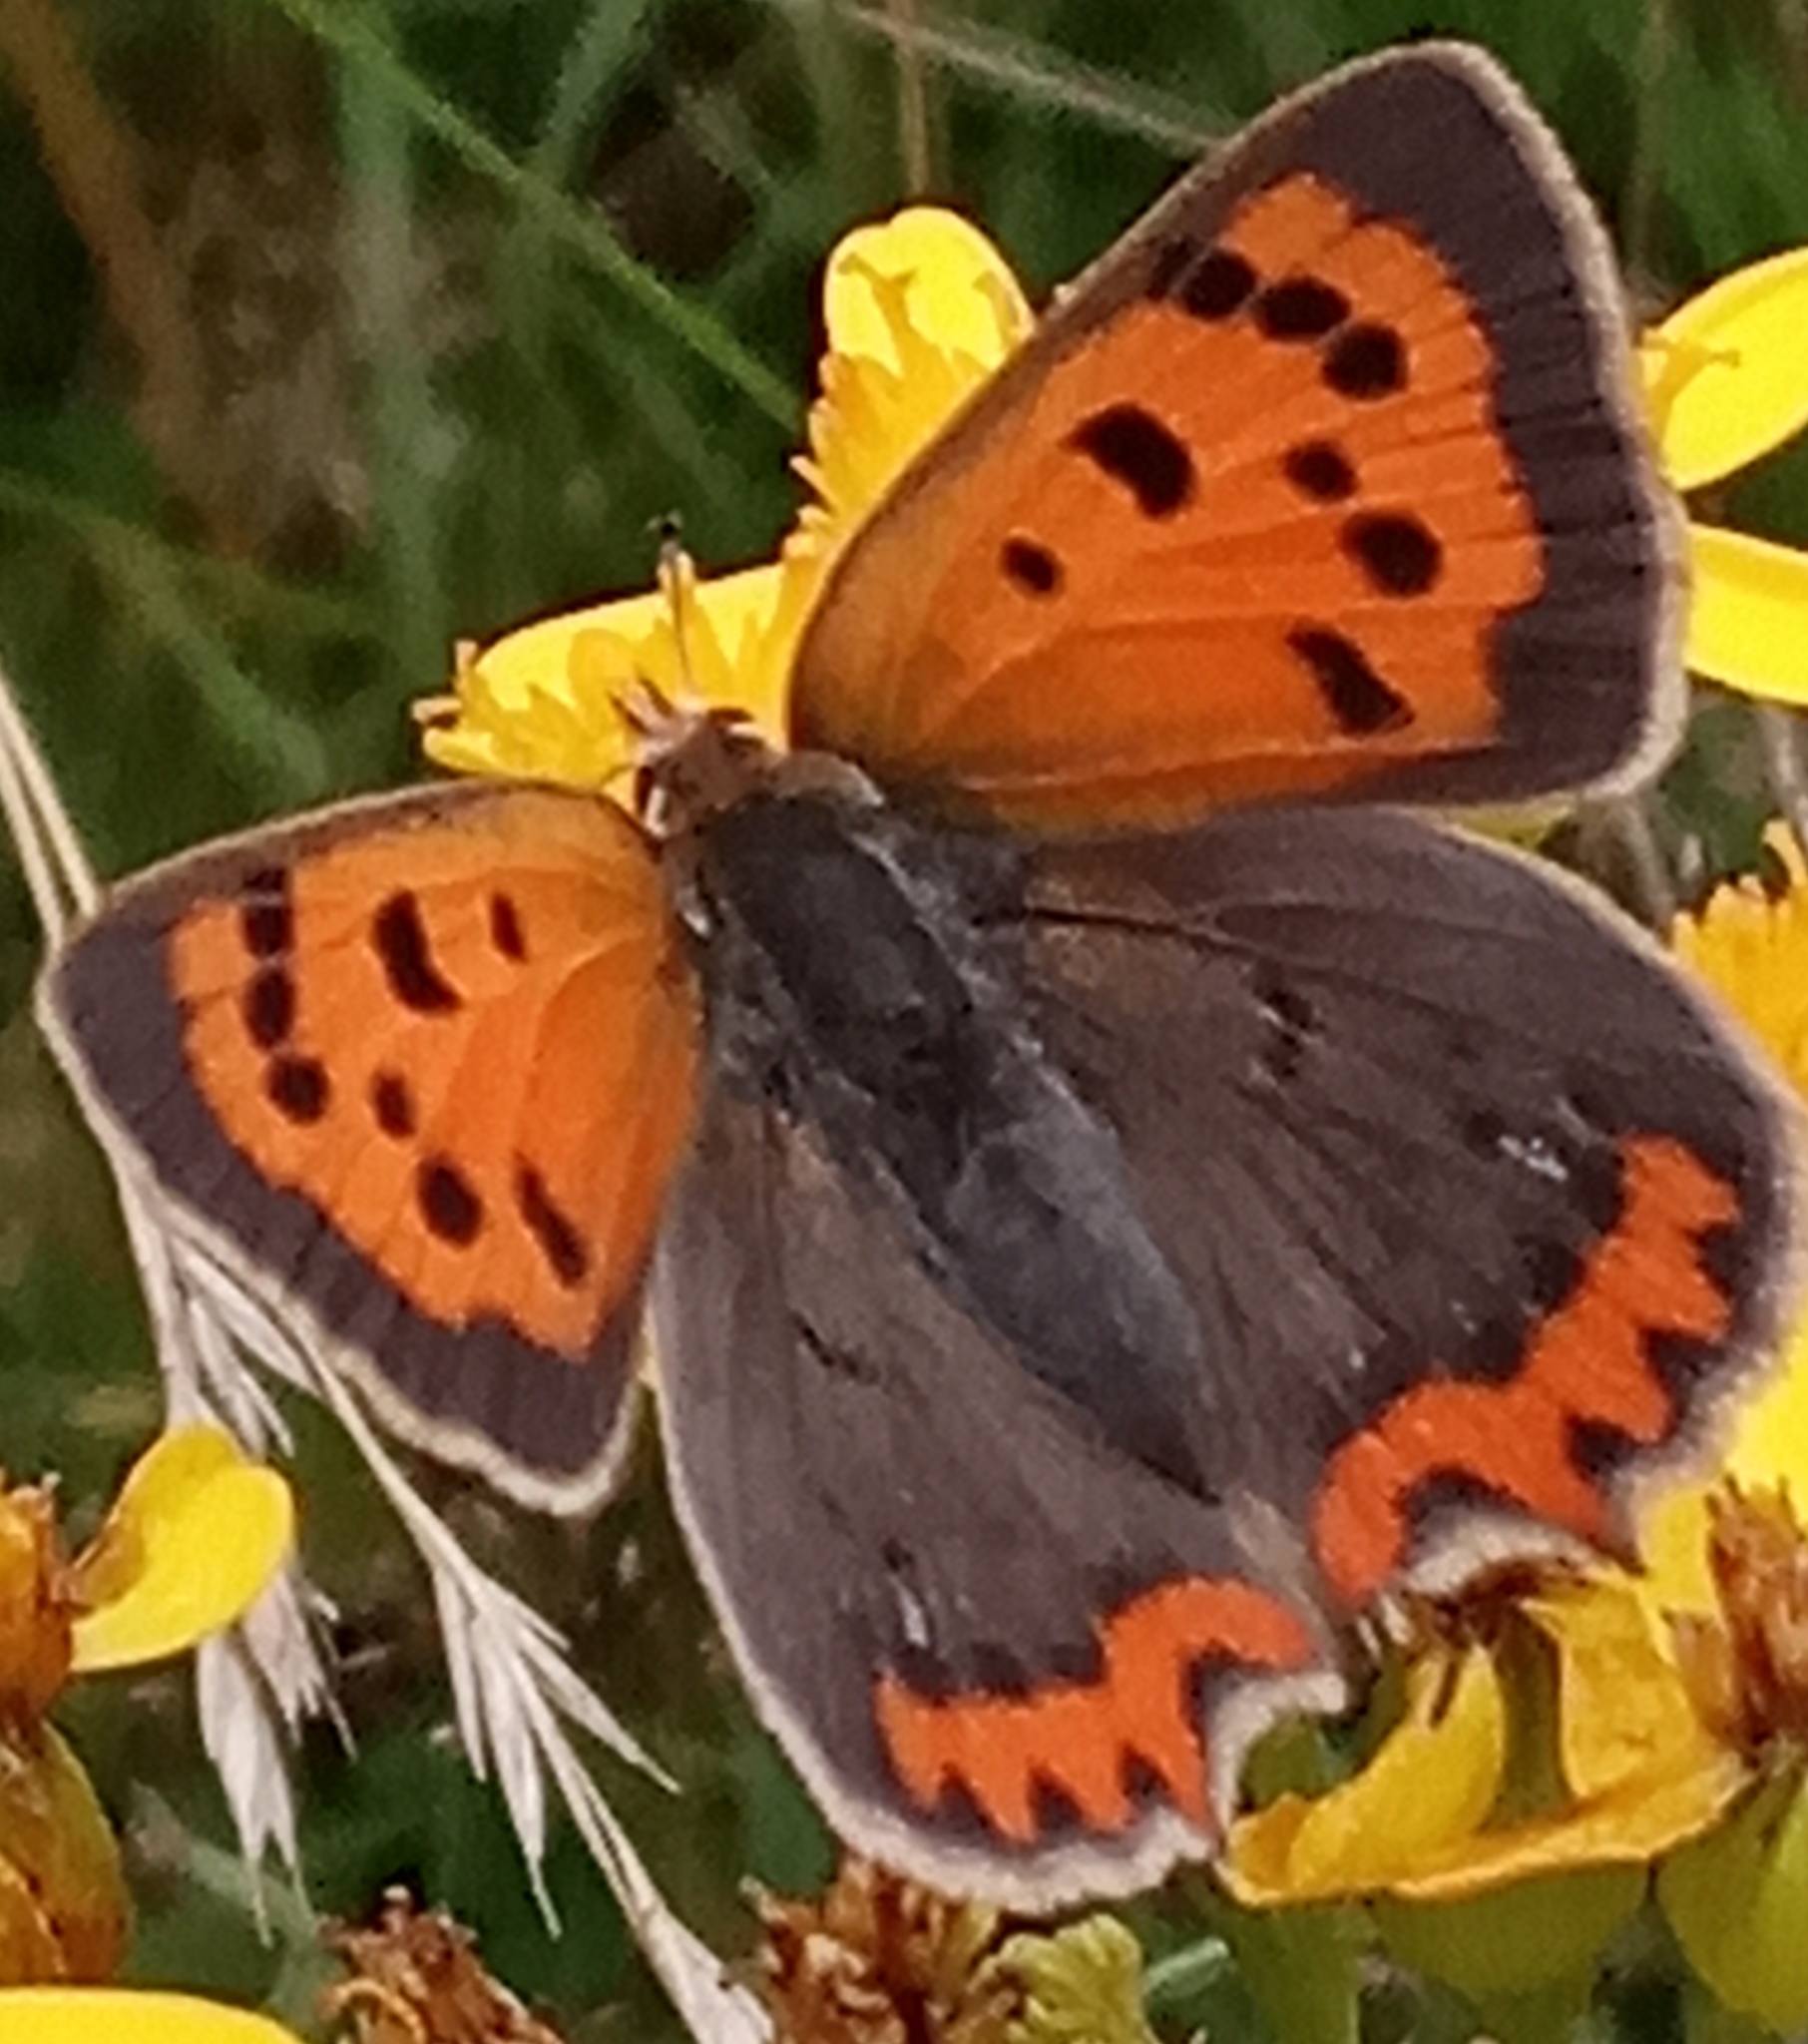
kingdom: Animalia
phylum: Arthropoda
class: Insecta
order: Lepidoptera
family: Lycaenidae
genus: Lycaena
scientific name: Lycaena phlaeas
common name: Small copper
